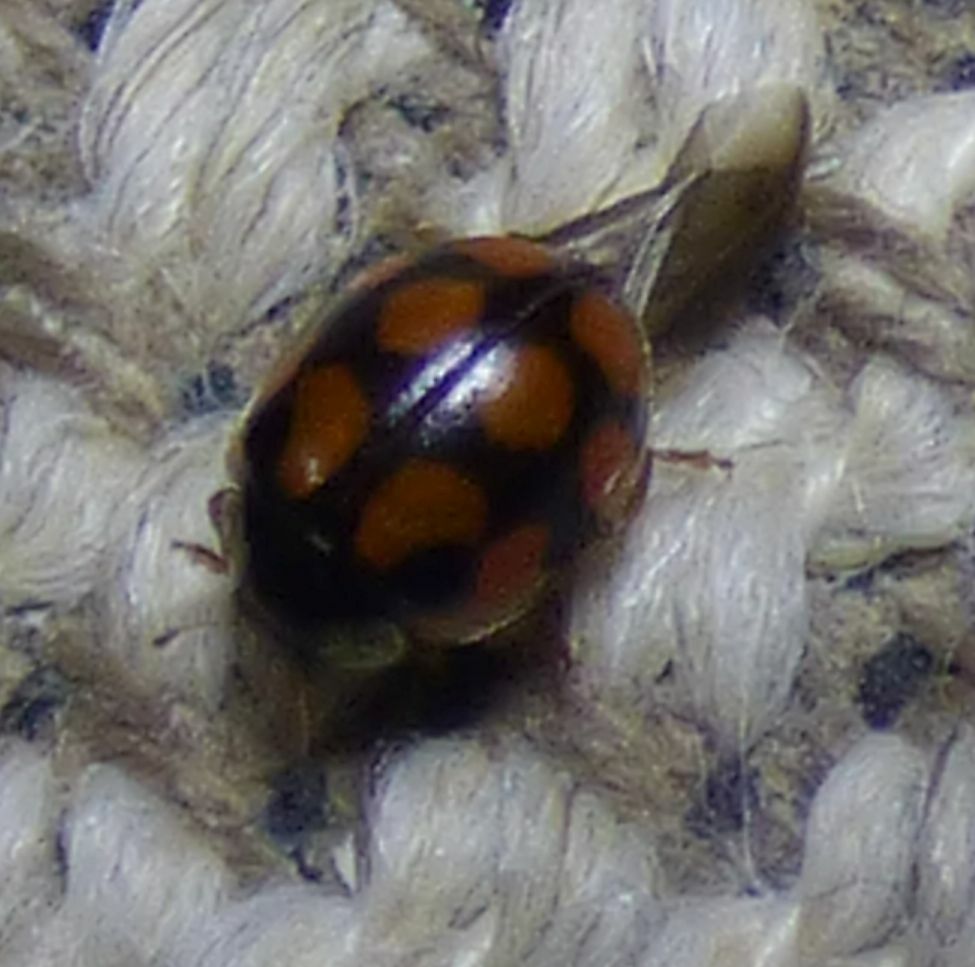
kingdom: Animalia
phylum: Arthropoda
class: Insecta
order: Coleoptera
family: Coccinellidae
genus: Adalia
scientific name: Adalia decempunctata
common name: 10-spot ladybird
